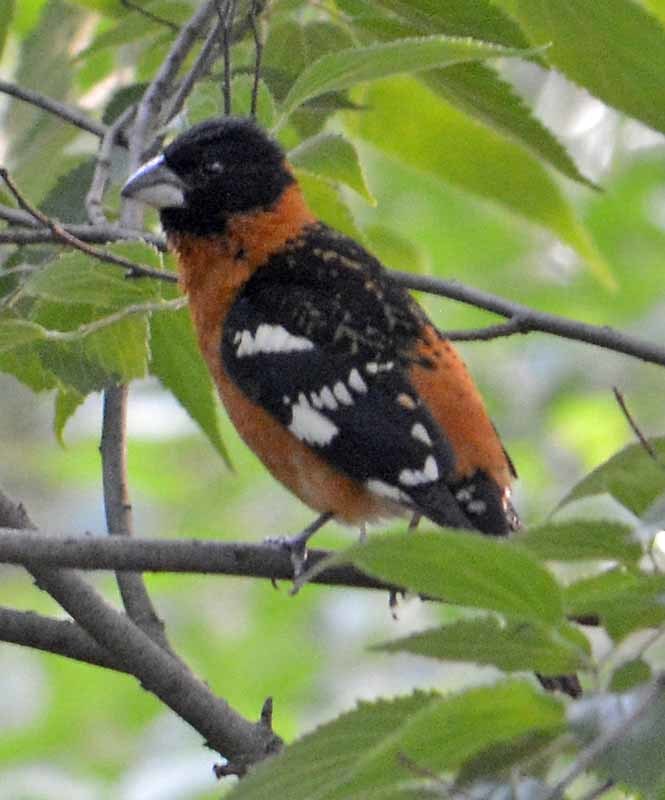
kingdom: Animalia
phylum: Chordata
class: Aves
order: Passeriformes
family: Cardinalidae
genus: Pheucticus
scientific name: Pheucticus melanocephalus
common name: Black-headed grosbeak
